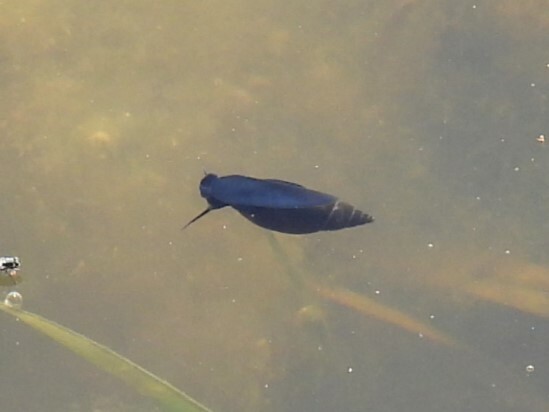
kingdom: Animalia
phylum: Mollusca
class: Gastropoda
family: Physidae
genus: Aplexa
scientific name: Aplexa hypnorum
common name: Moss bladder snail
